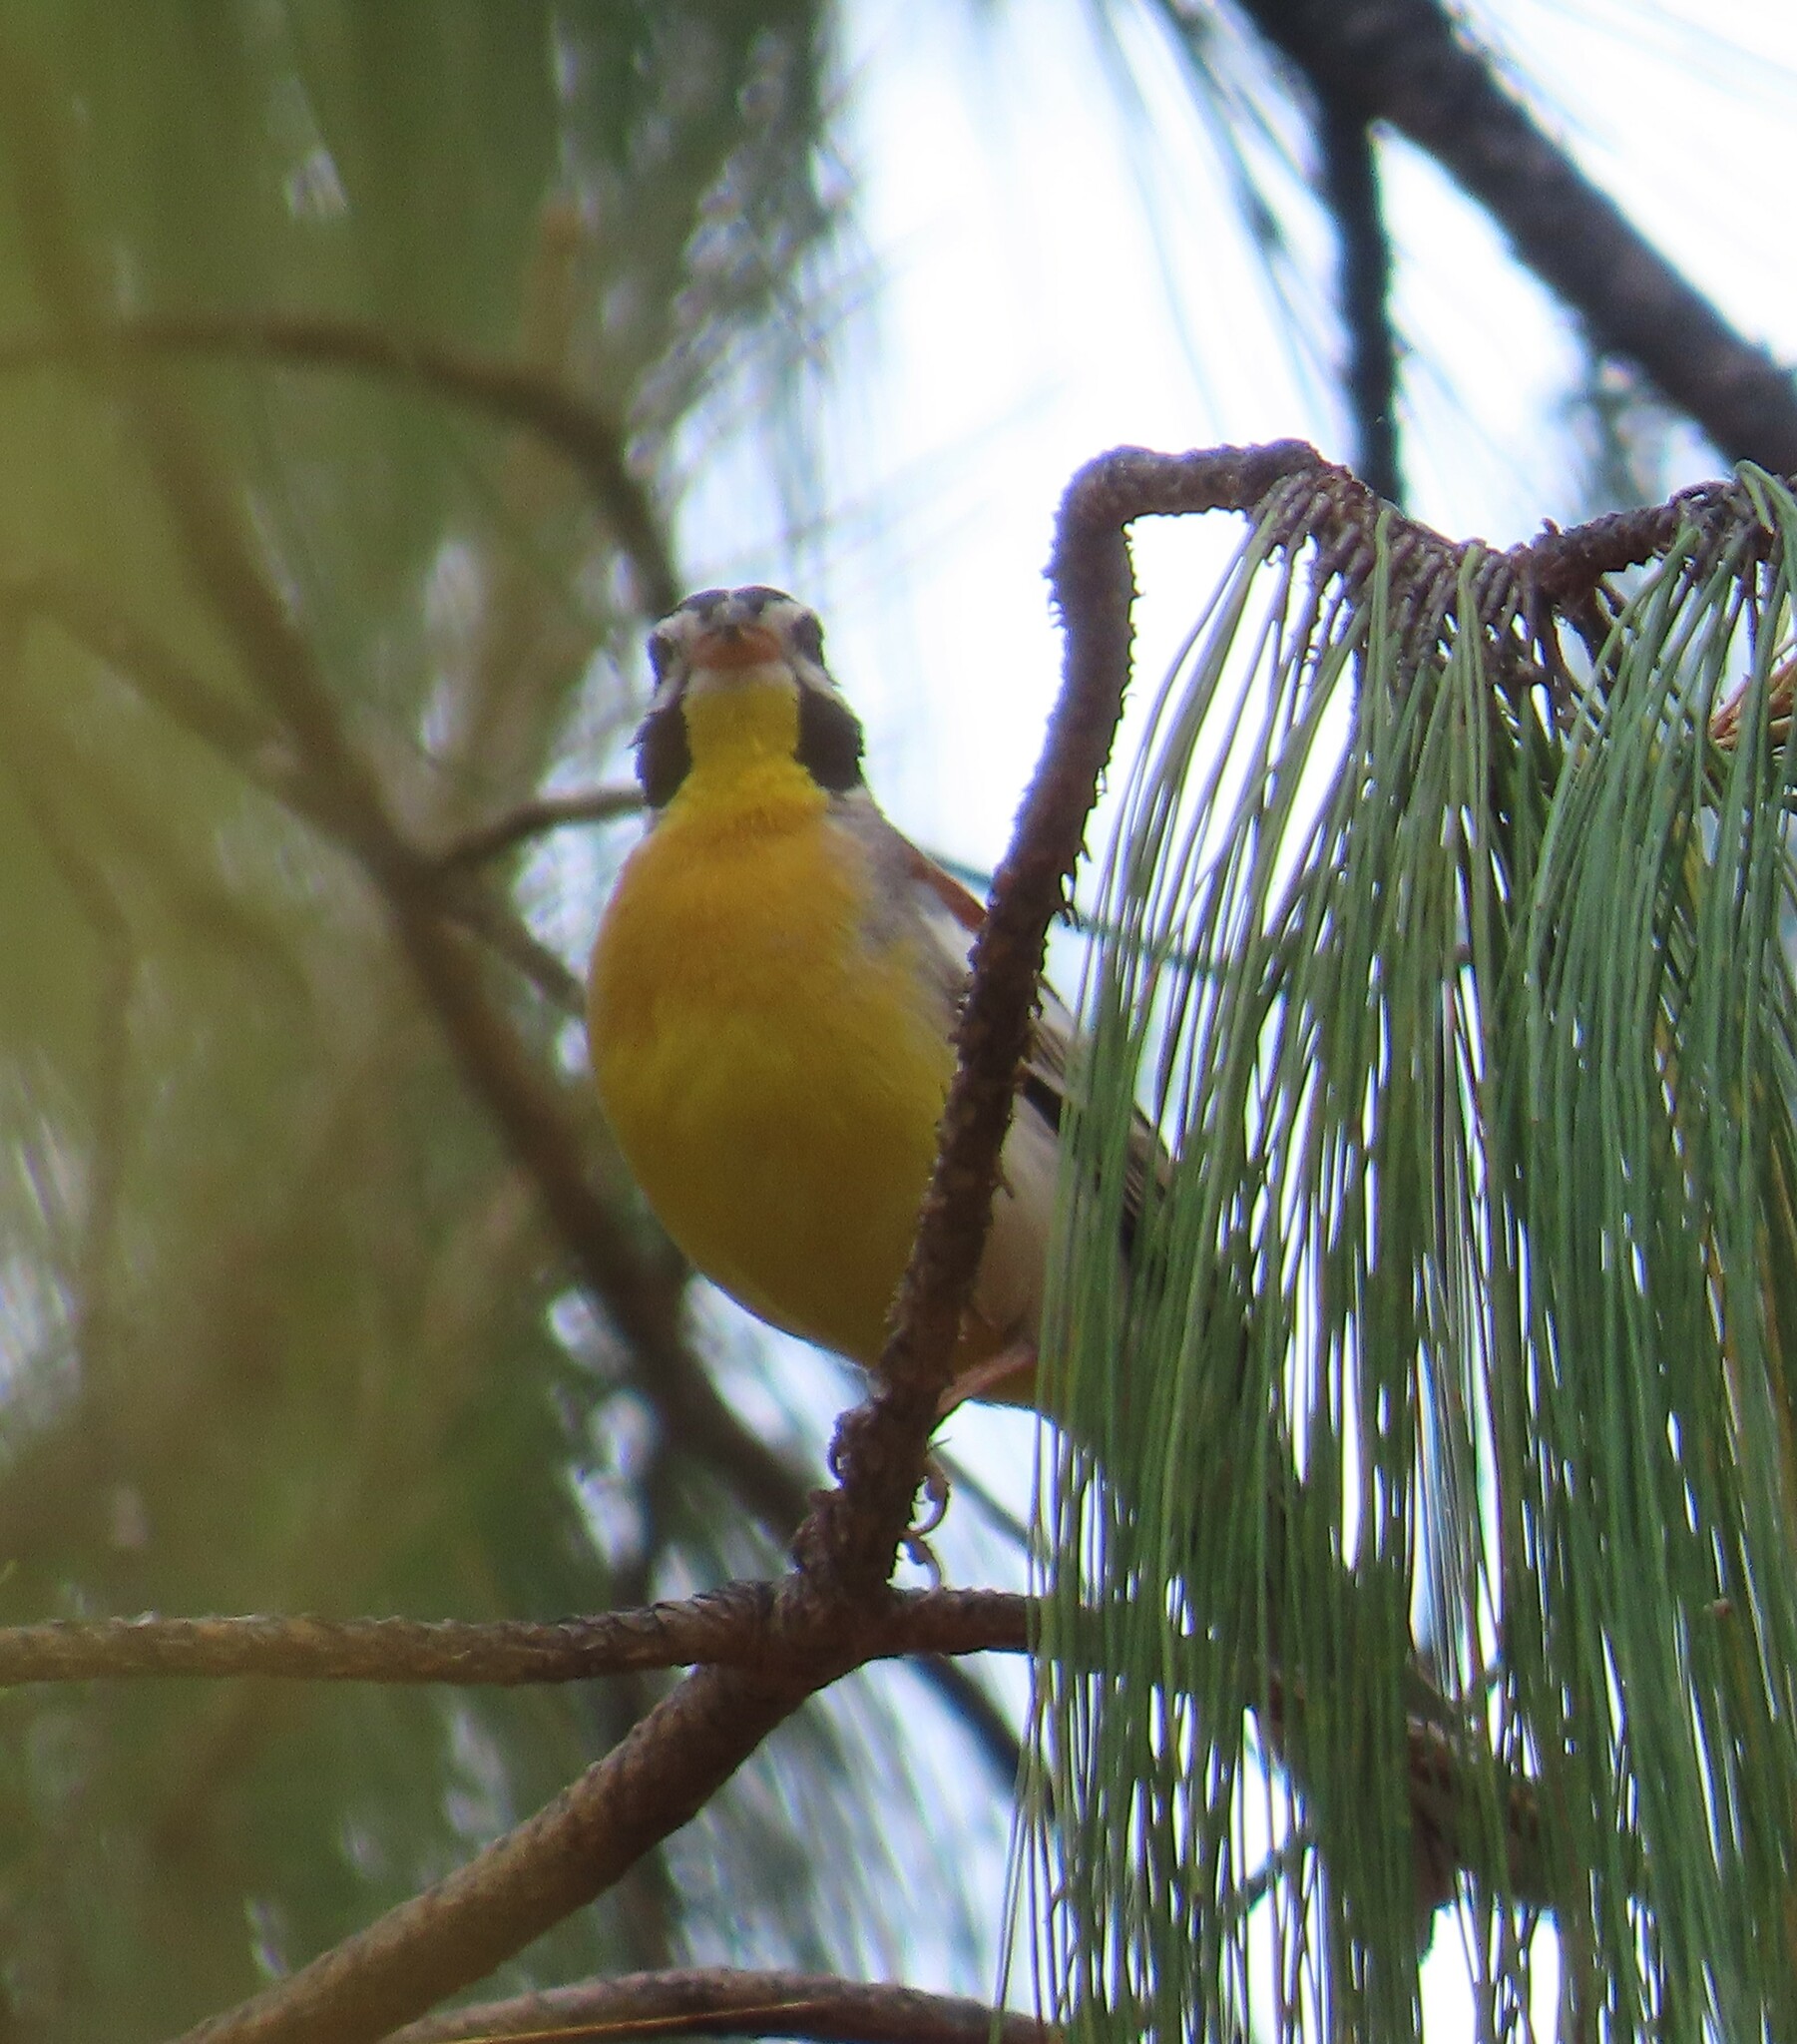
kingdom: Animalia
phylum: Chordata
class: Aves
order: Passeriformes
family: Emberizidae
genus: Emberiza
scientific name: Emberiza flaviventris
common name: Golden-breasted bunting
